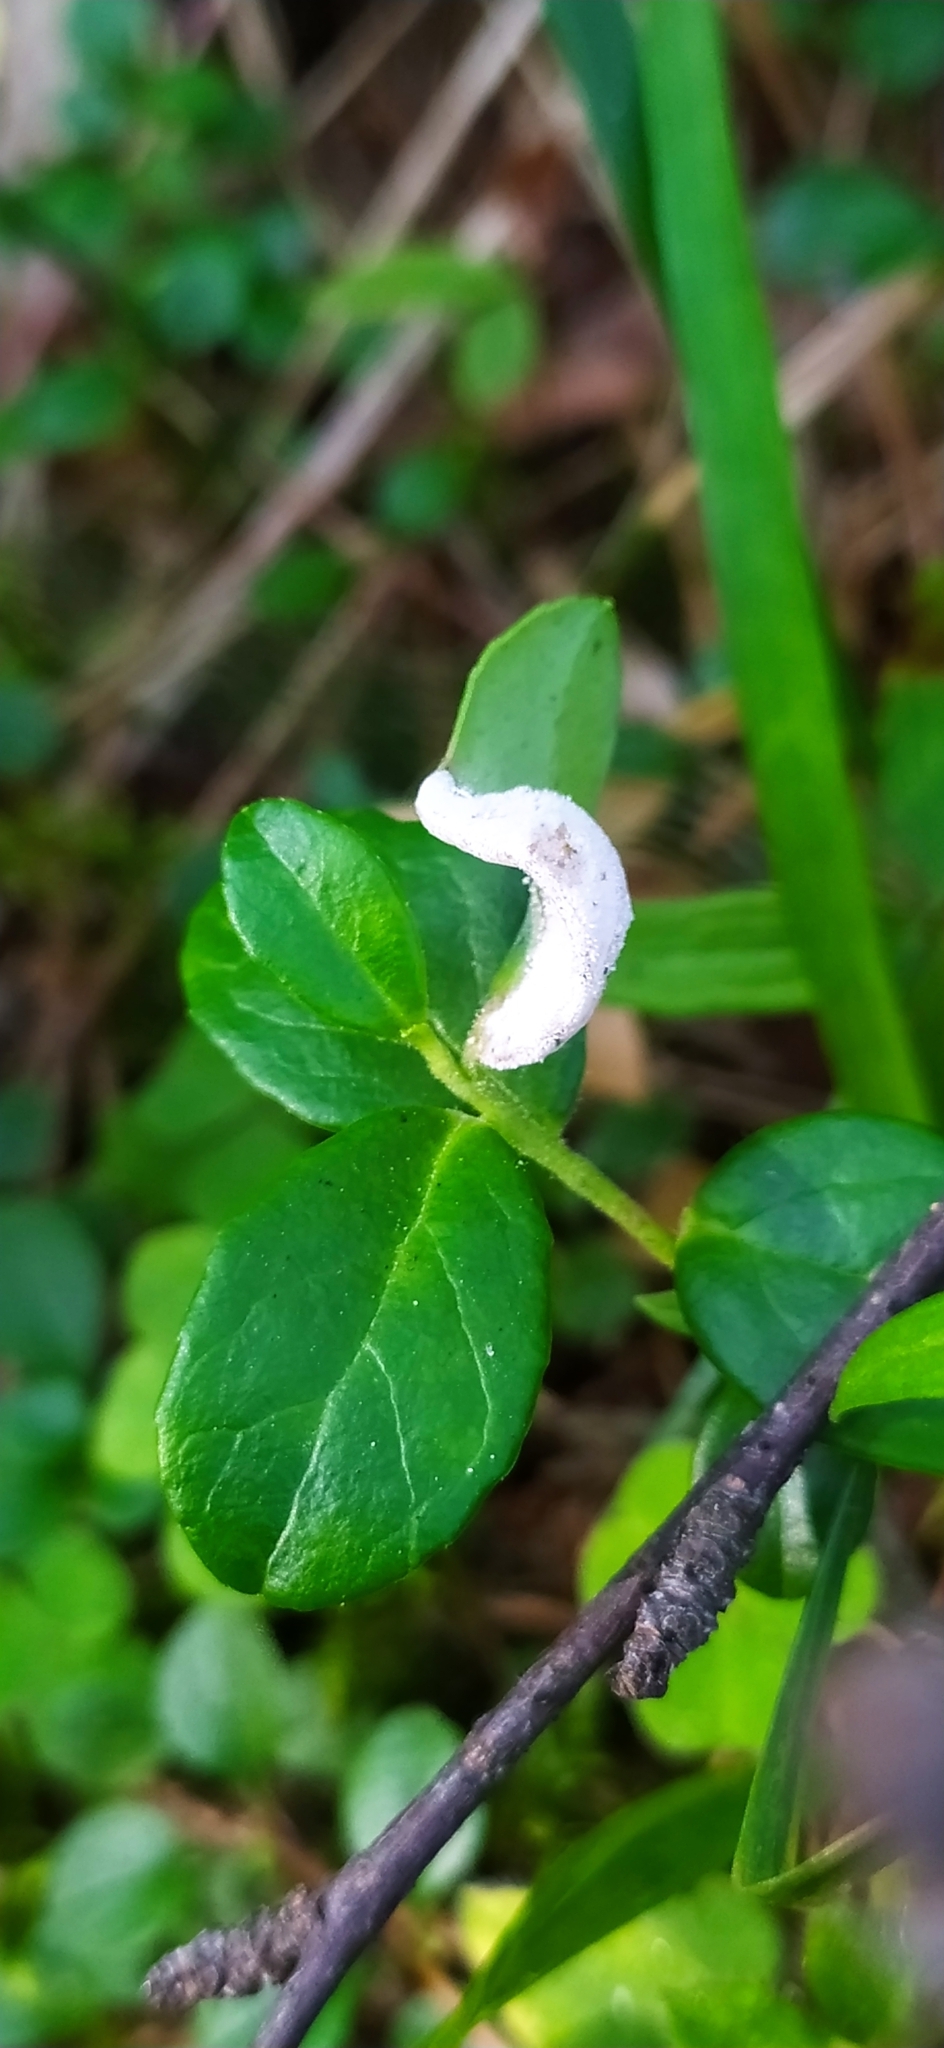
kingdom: Fungi
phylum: Basidiomycota
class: Exobasidiomycetes
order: Exobasidiales
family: Exobasidiaceae
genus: Exobasidium
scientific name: Exobasidium vaccinii
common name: Cowberry redleaf
